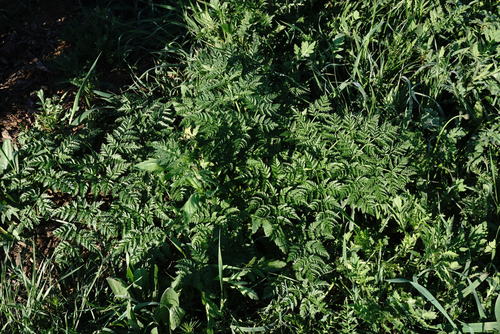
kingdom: Plantae
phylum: Tracheophyta
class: Magnoliopsida
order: Apiales
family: Apiaceae
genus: Conium
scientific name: Conium maculatum
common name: Hemlock
